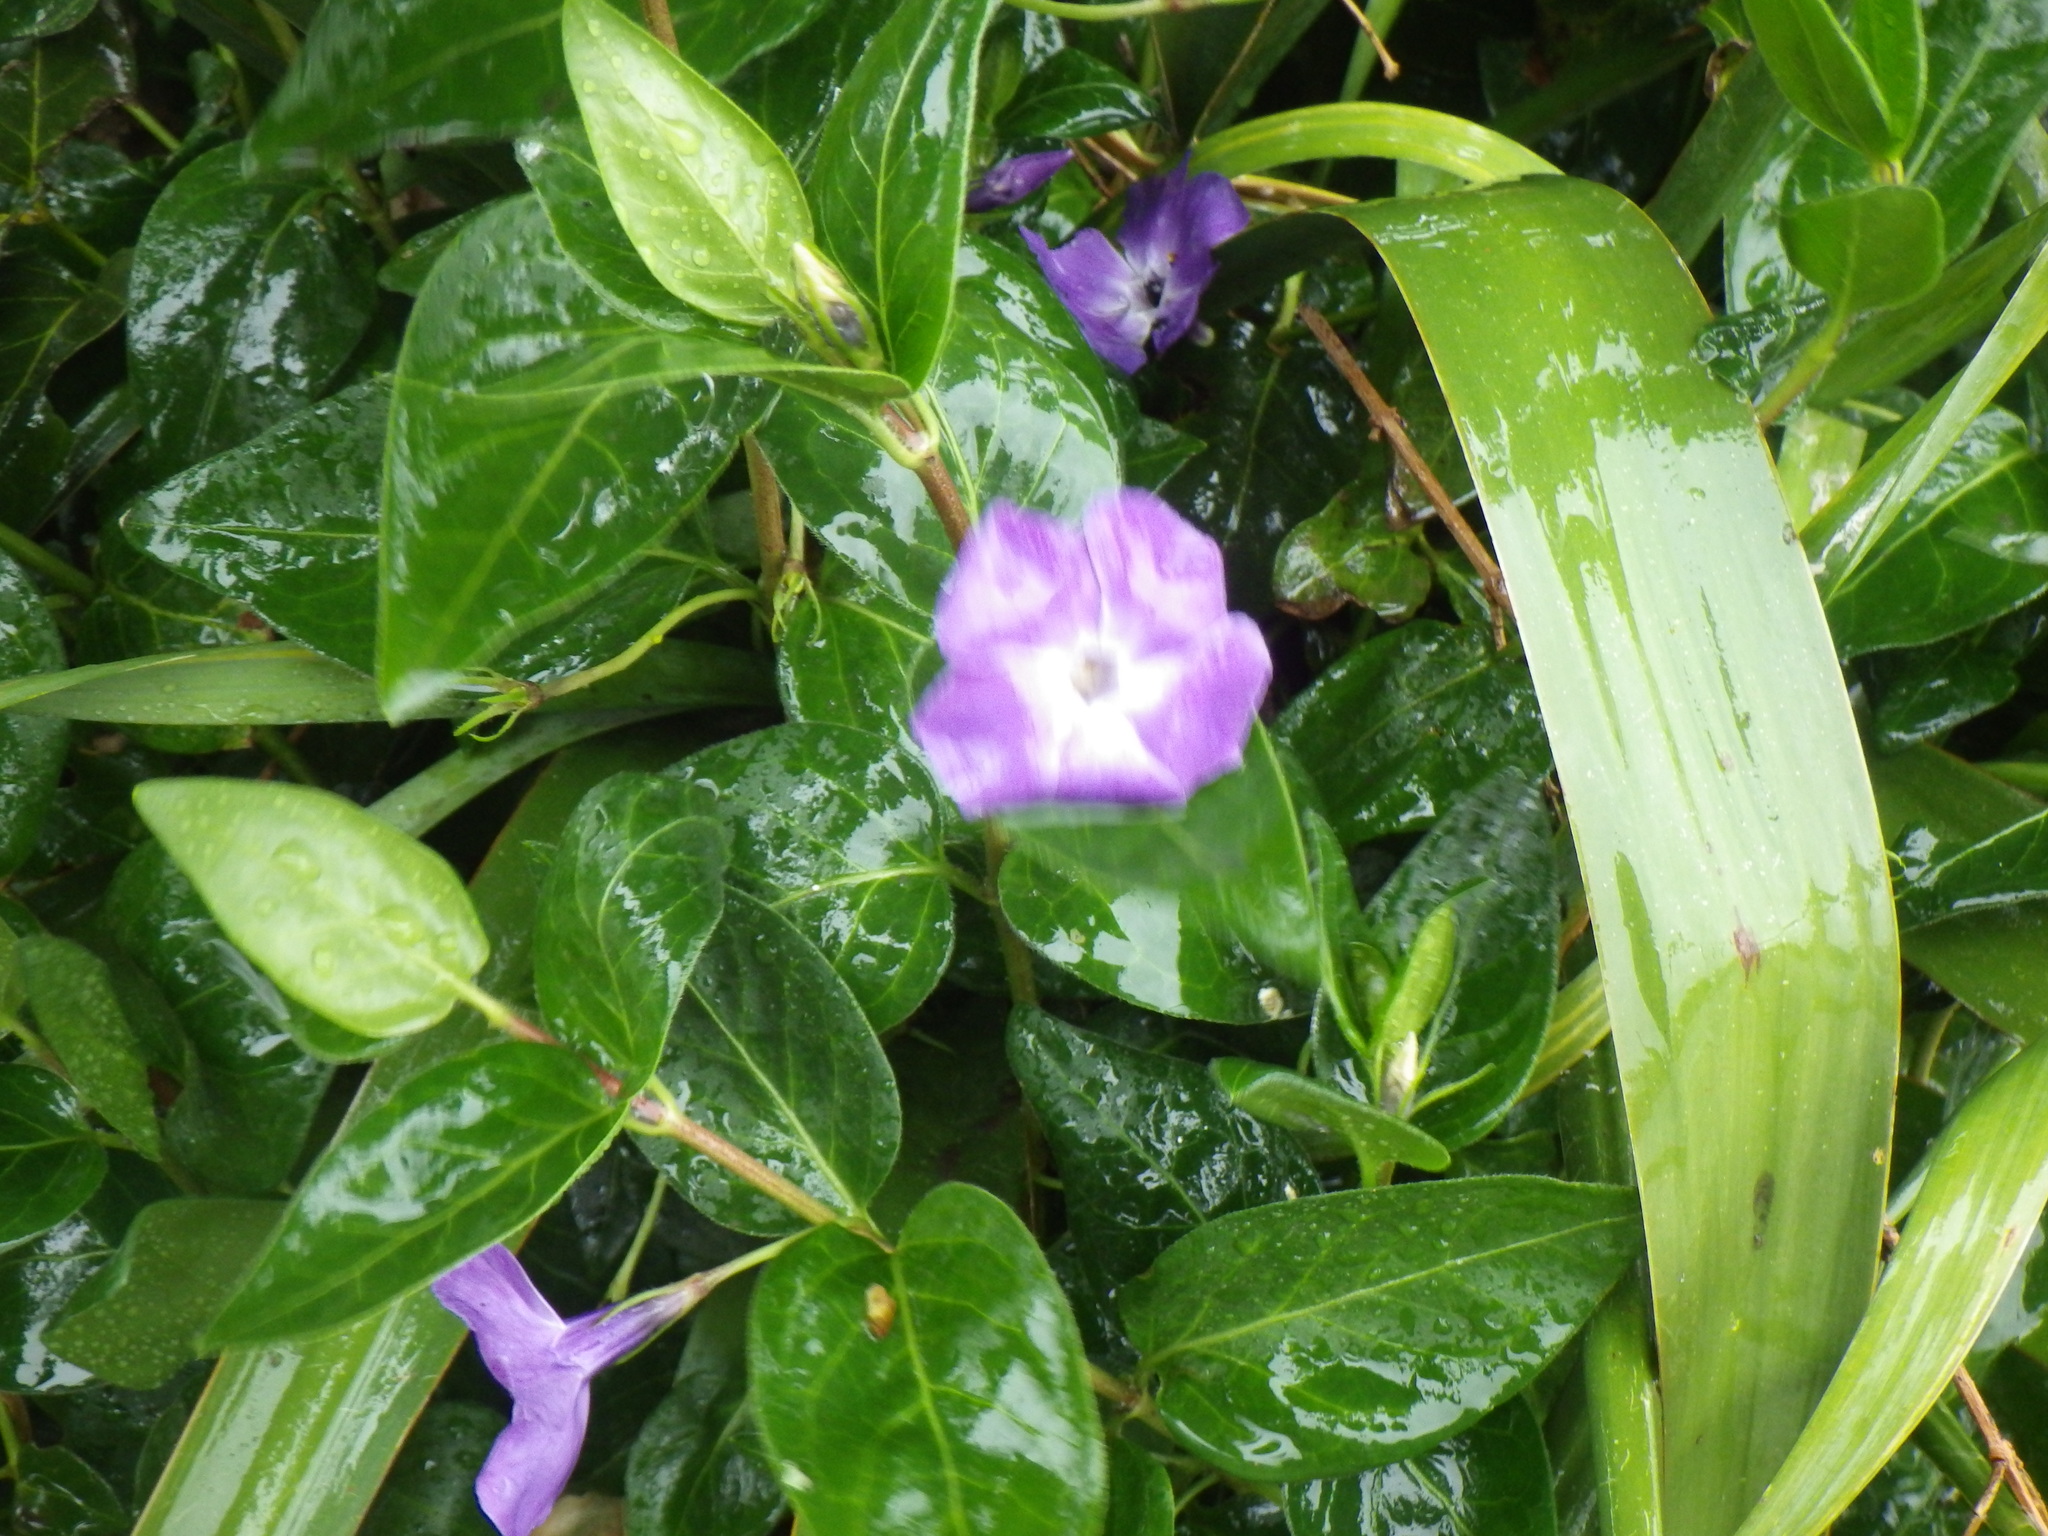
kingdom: Plantae
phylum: Tracheophyta
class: Magnoliopsida
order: Gentianales
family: Apocynaceae
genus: Vinca
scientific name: Vinca major
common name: Greater periwinkle
